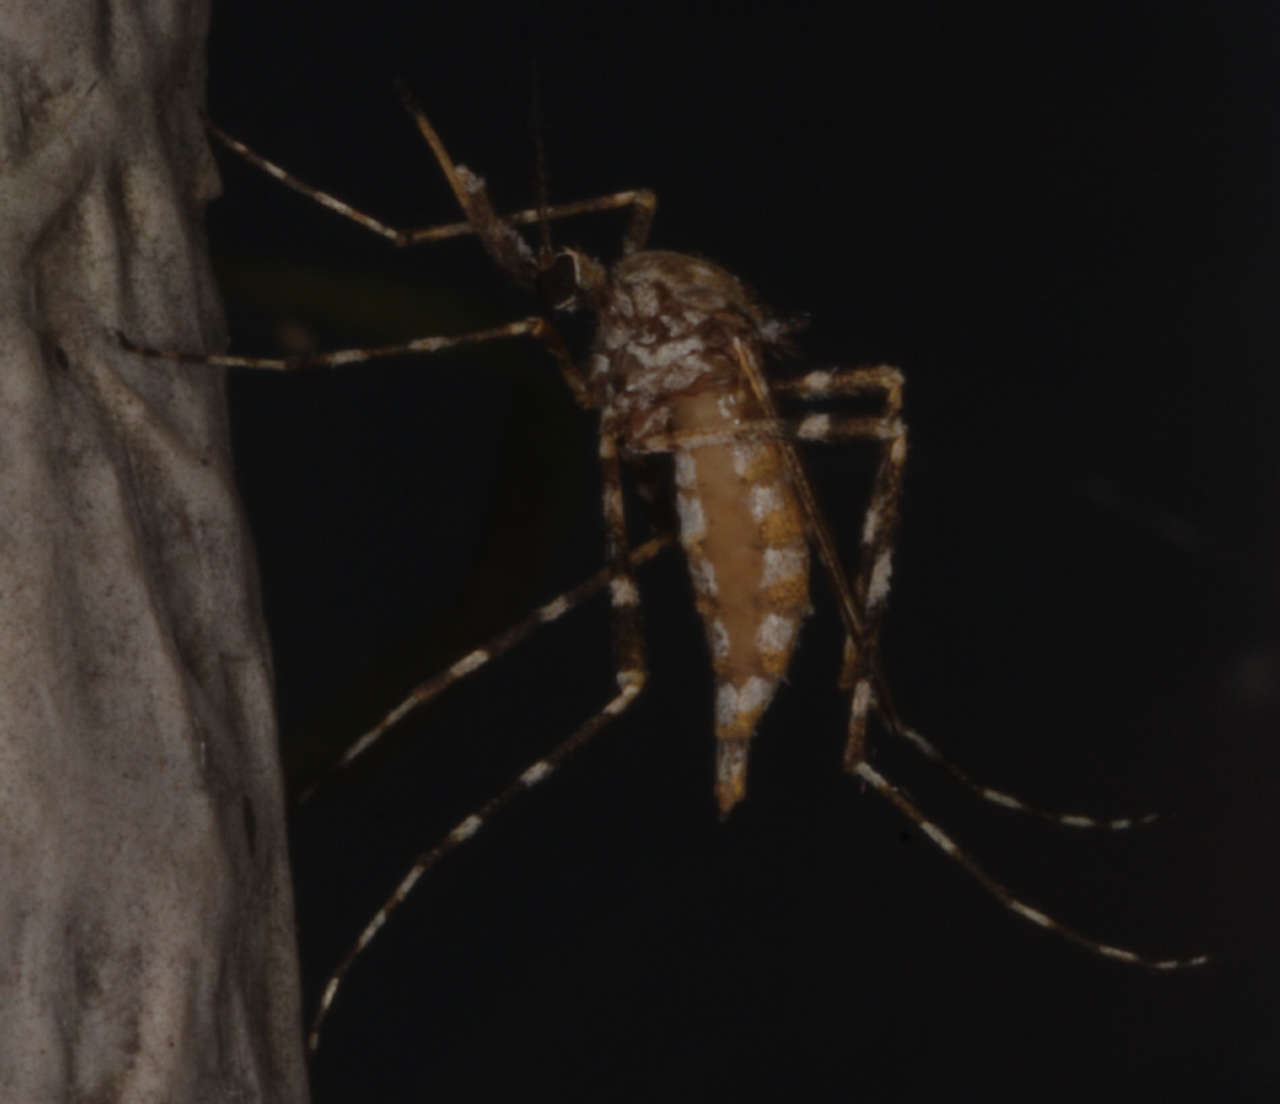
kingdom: Animalia
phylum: Arthropoda
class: Insecta
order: Diptera
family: Culicidae
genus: Aedes
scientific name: Aedes alternans
